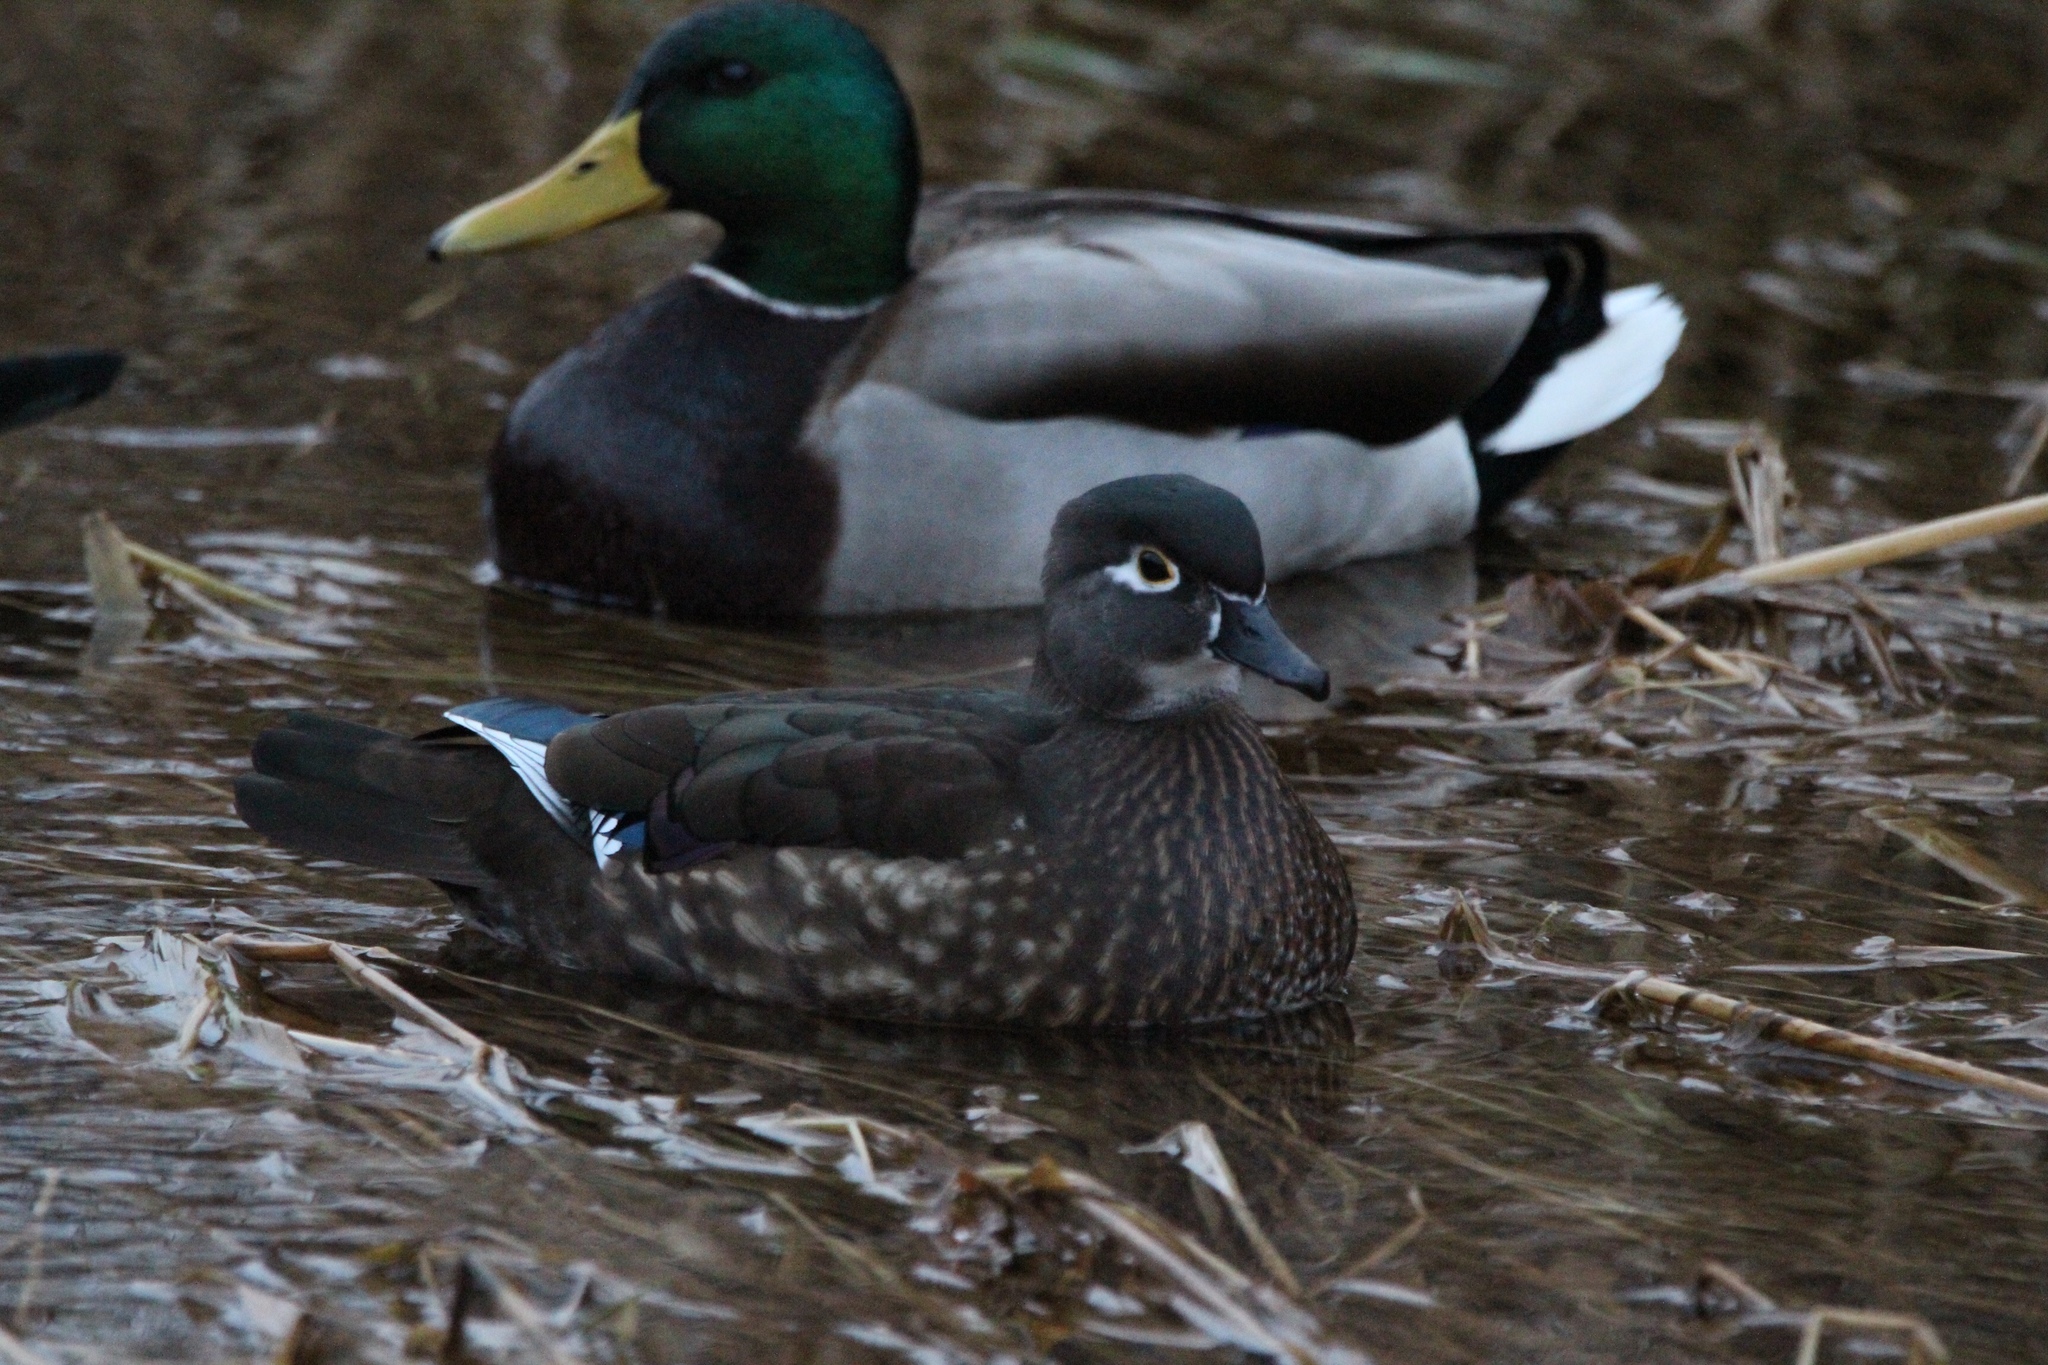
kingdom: Animalia
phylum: Chordata
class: Aves
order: Anseriformes
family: Anatidae
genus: Aix
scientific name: Aix sponsa
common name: Wood duck
